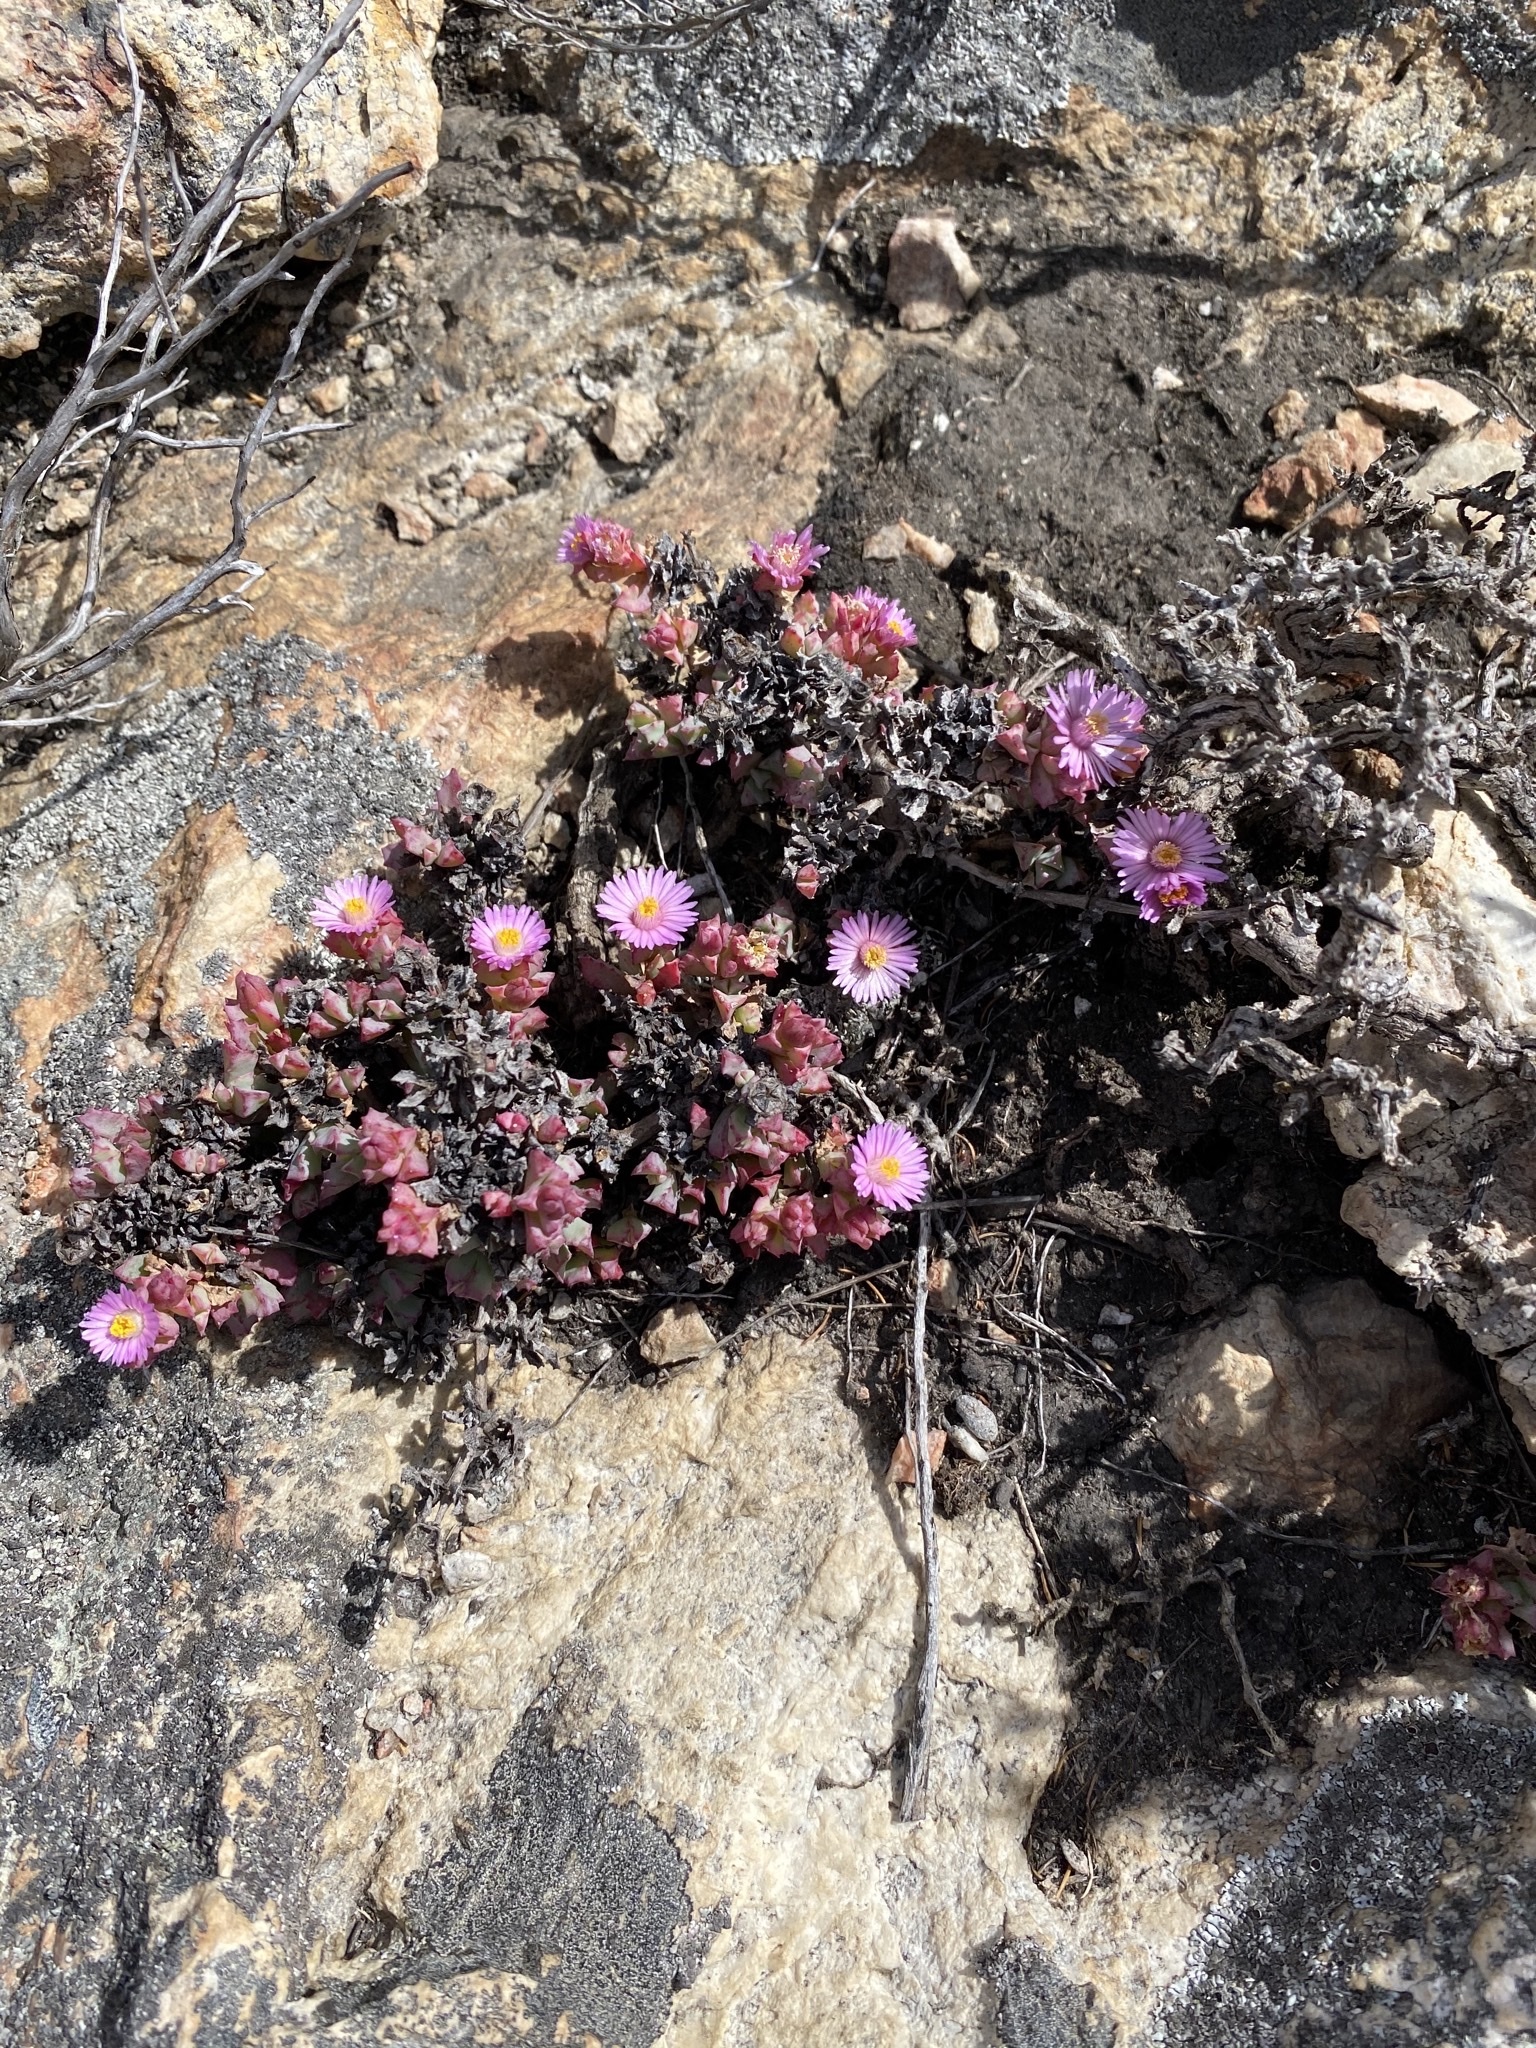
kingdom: Plantae
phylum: Tracheophyta
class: Magnoliopsida
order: Caryophyllales
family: Aizoaceae
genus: Oscularia
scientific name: Oscularia deltoides
